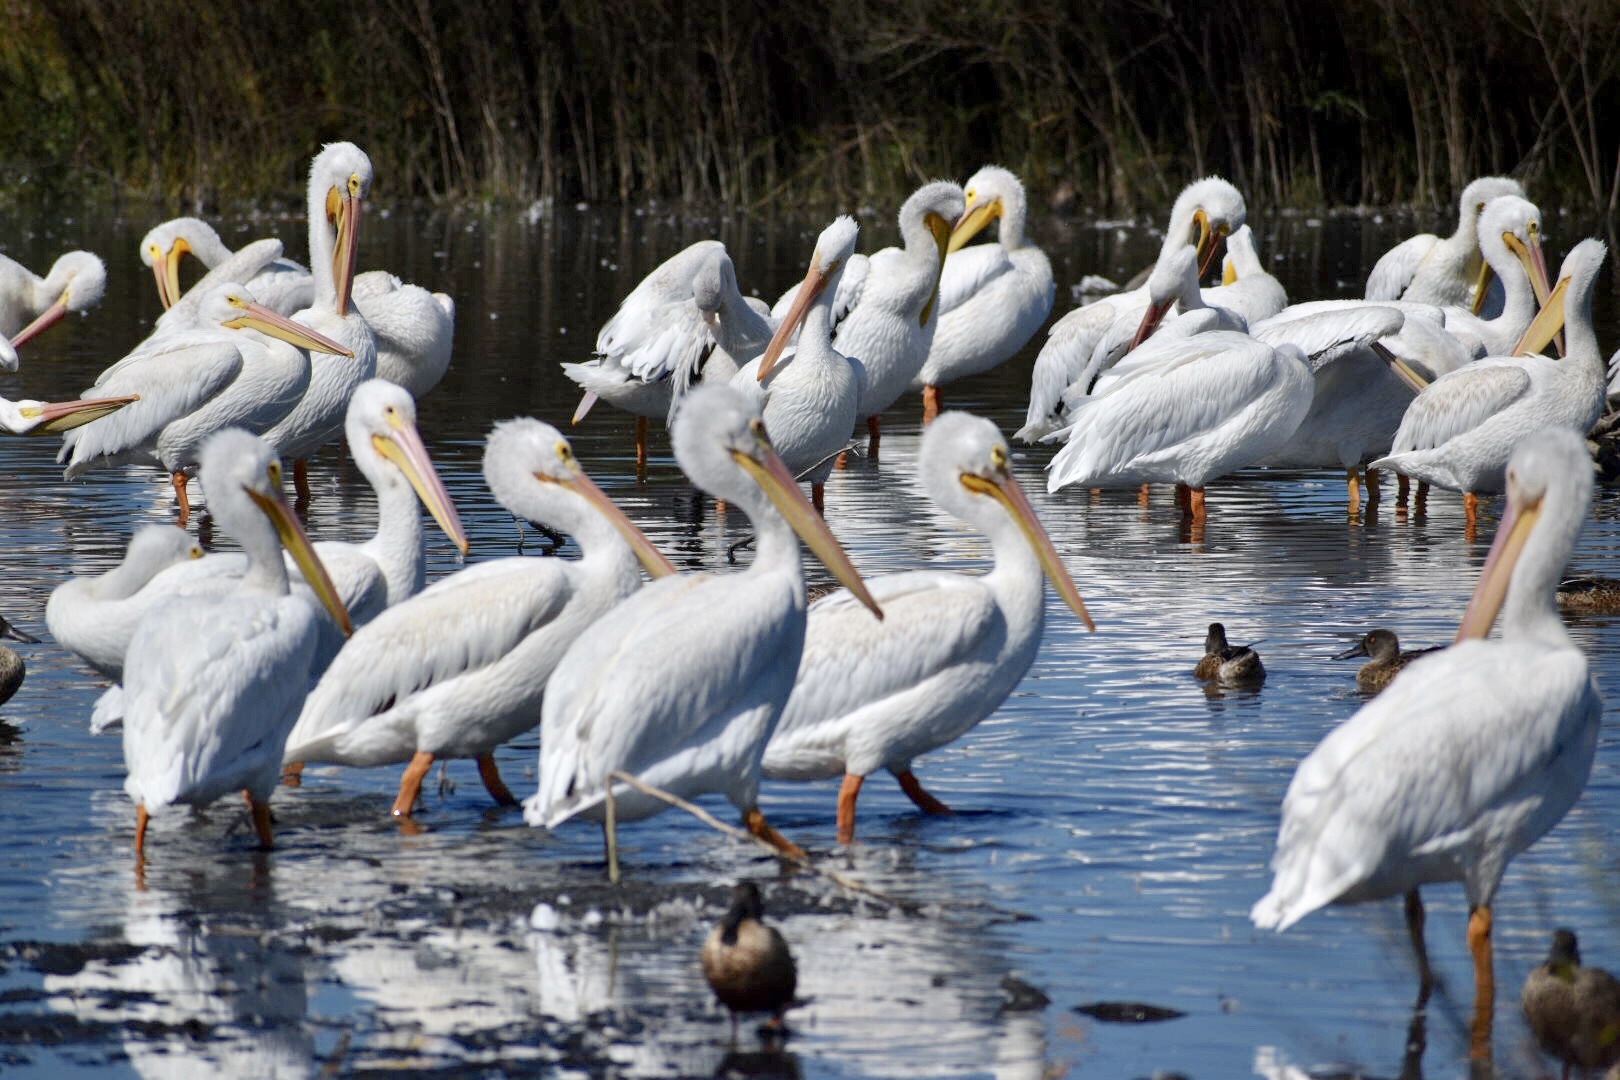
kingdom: Animalia
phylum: Chordata
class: Aves
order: Pelecaniformes
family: Pelecanidae
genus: Pelecanus
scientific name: Pelecanus erythrorhynchos
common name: American white pelican
